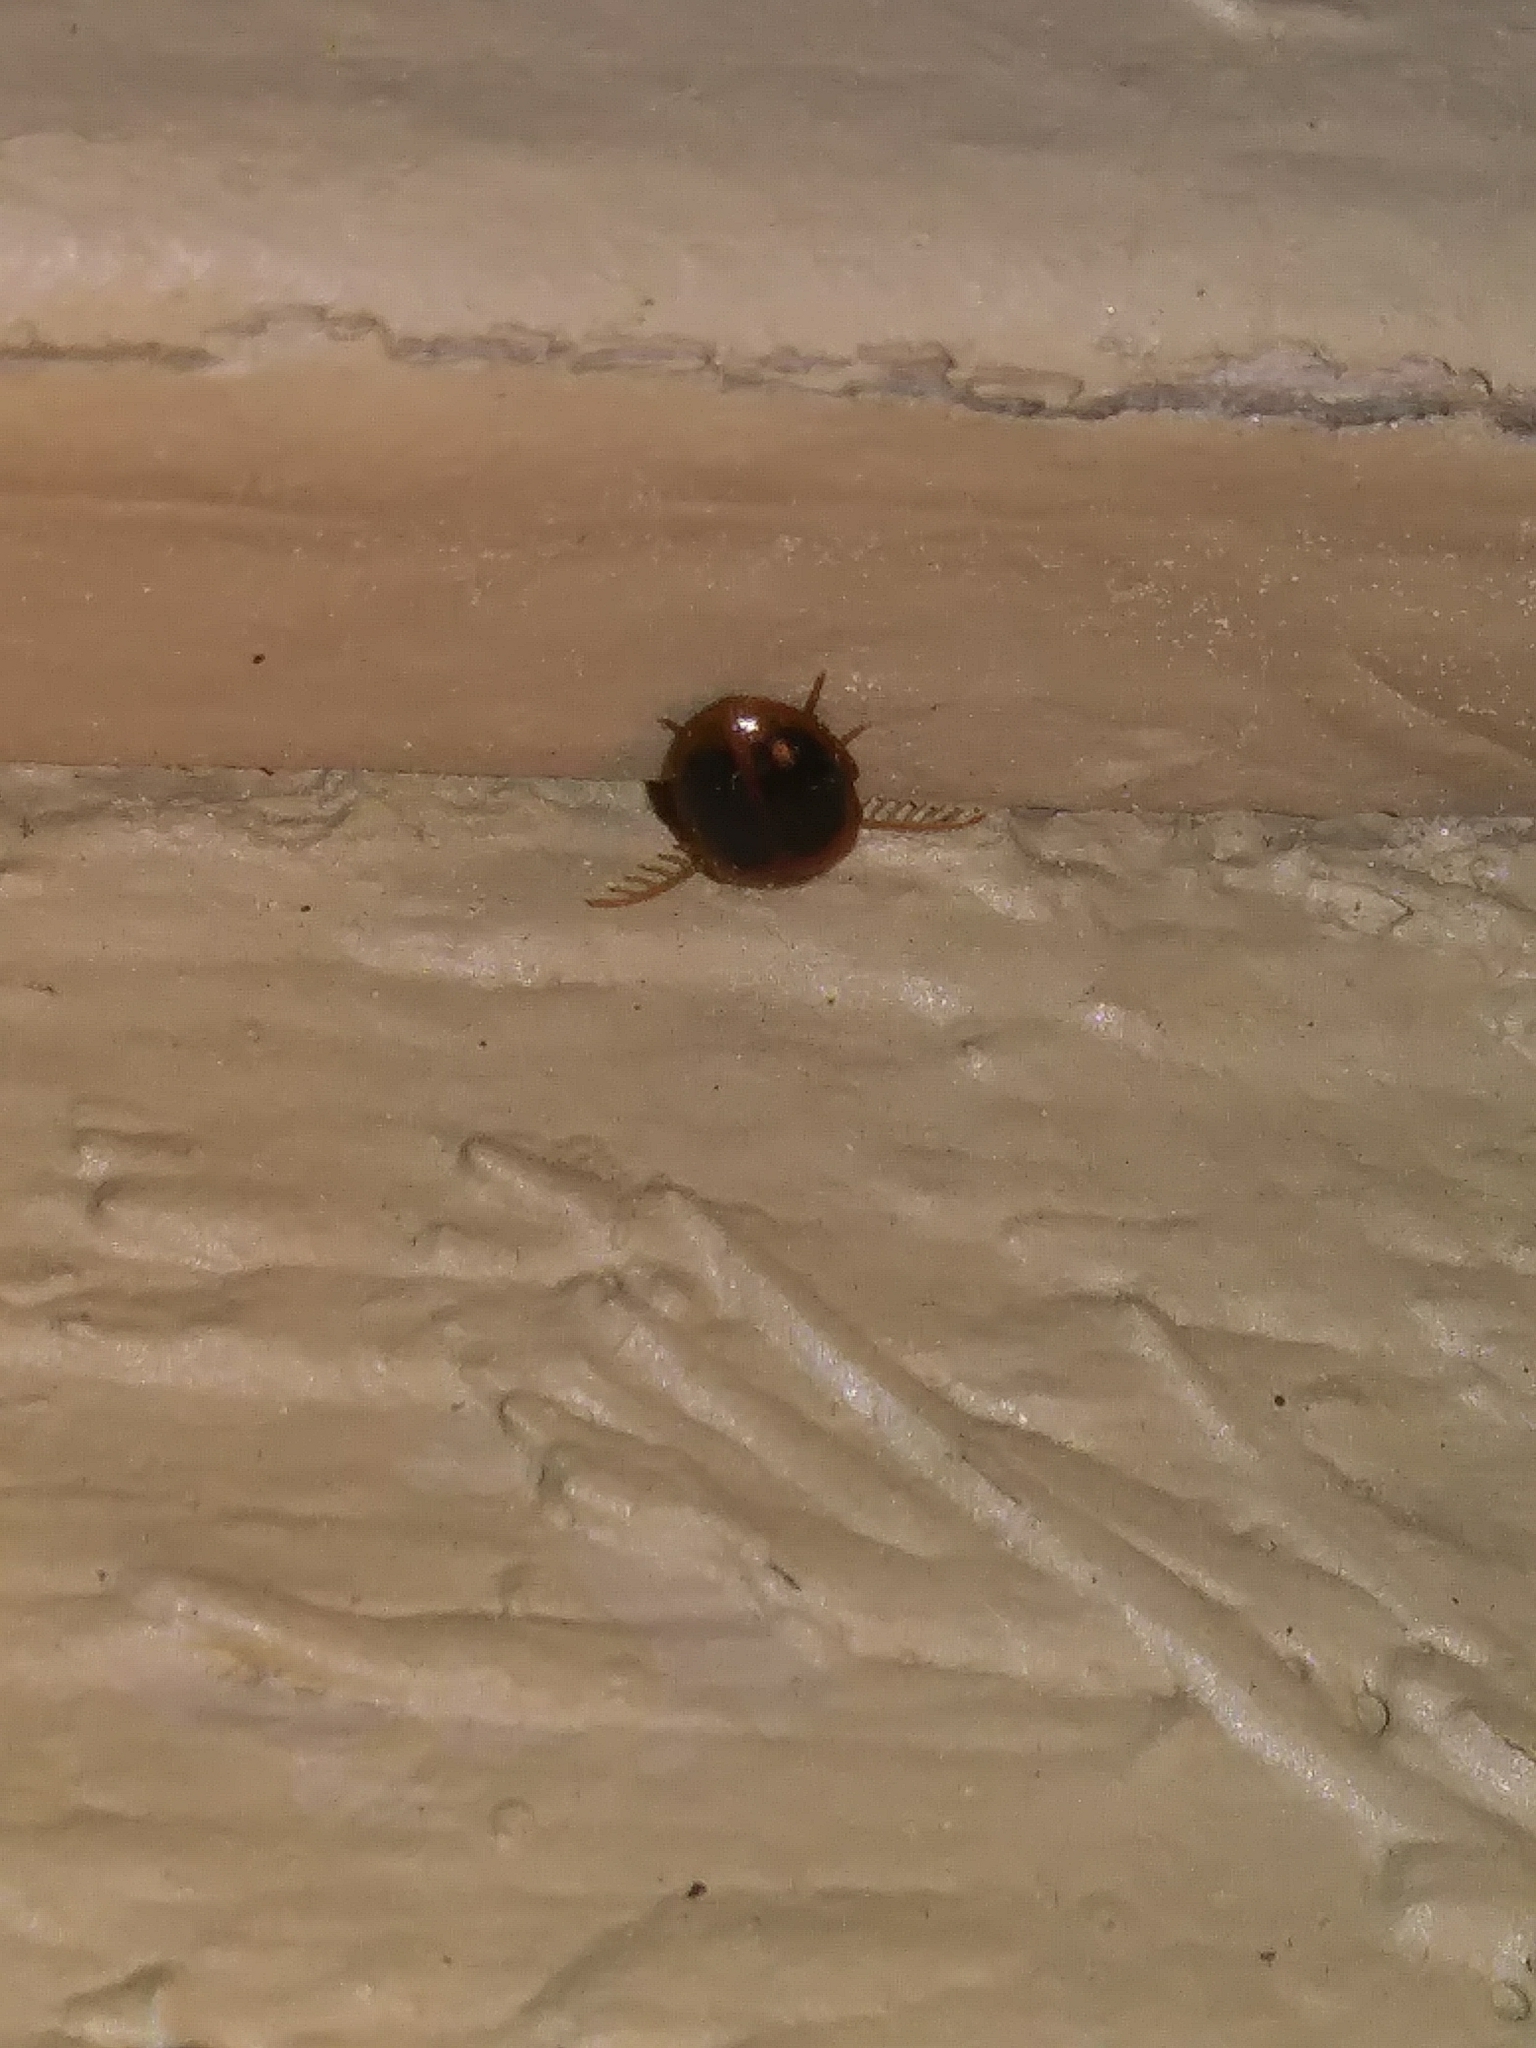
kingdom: Animalia
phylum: Arthropoda
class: Insecta
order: Coleoptera
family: Scirtidae
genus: Prionocyphon
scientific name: Prionocyphon discoideus
